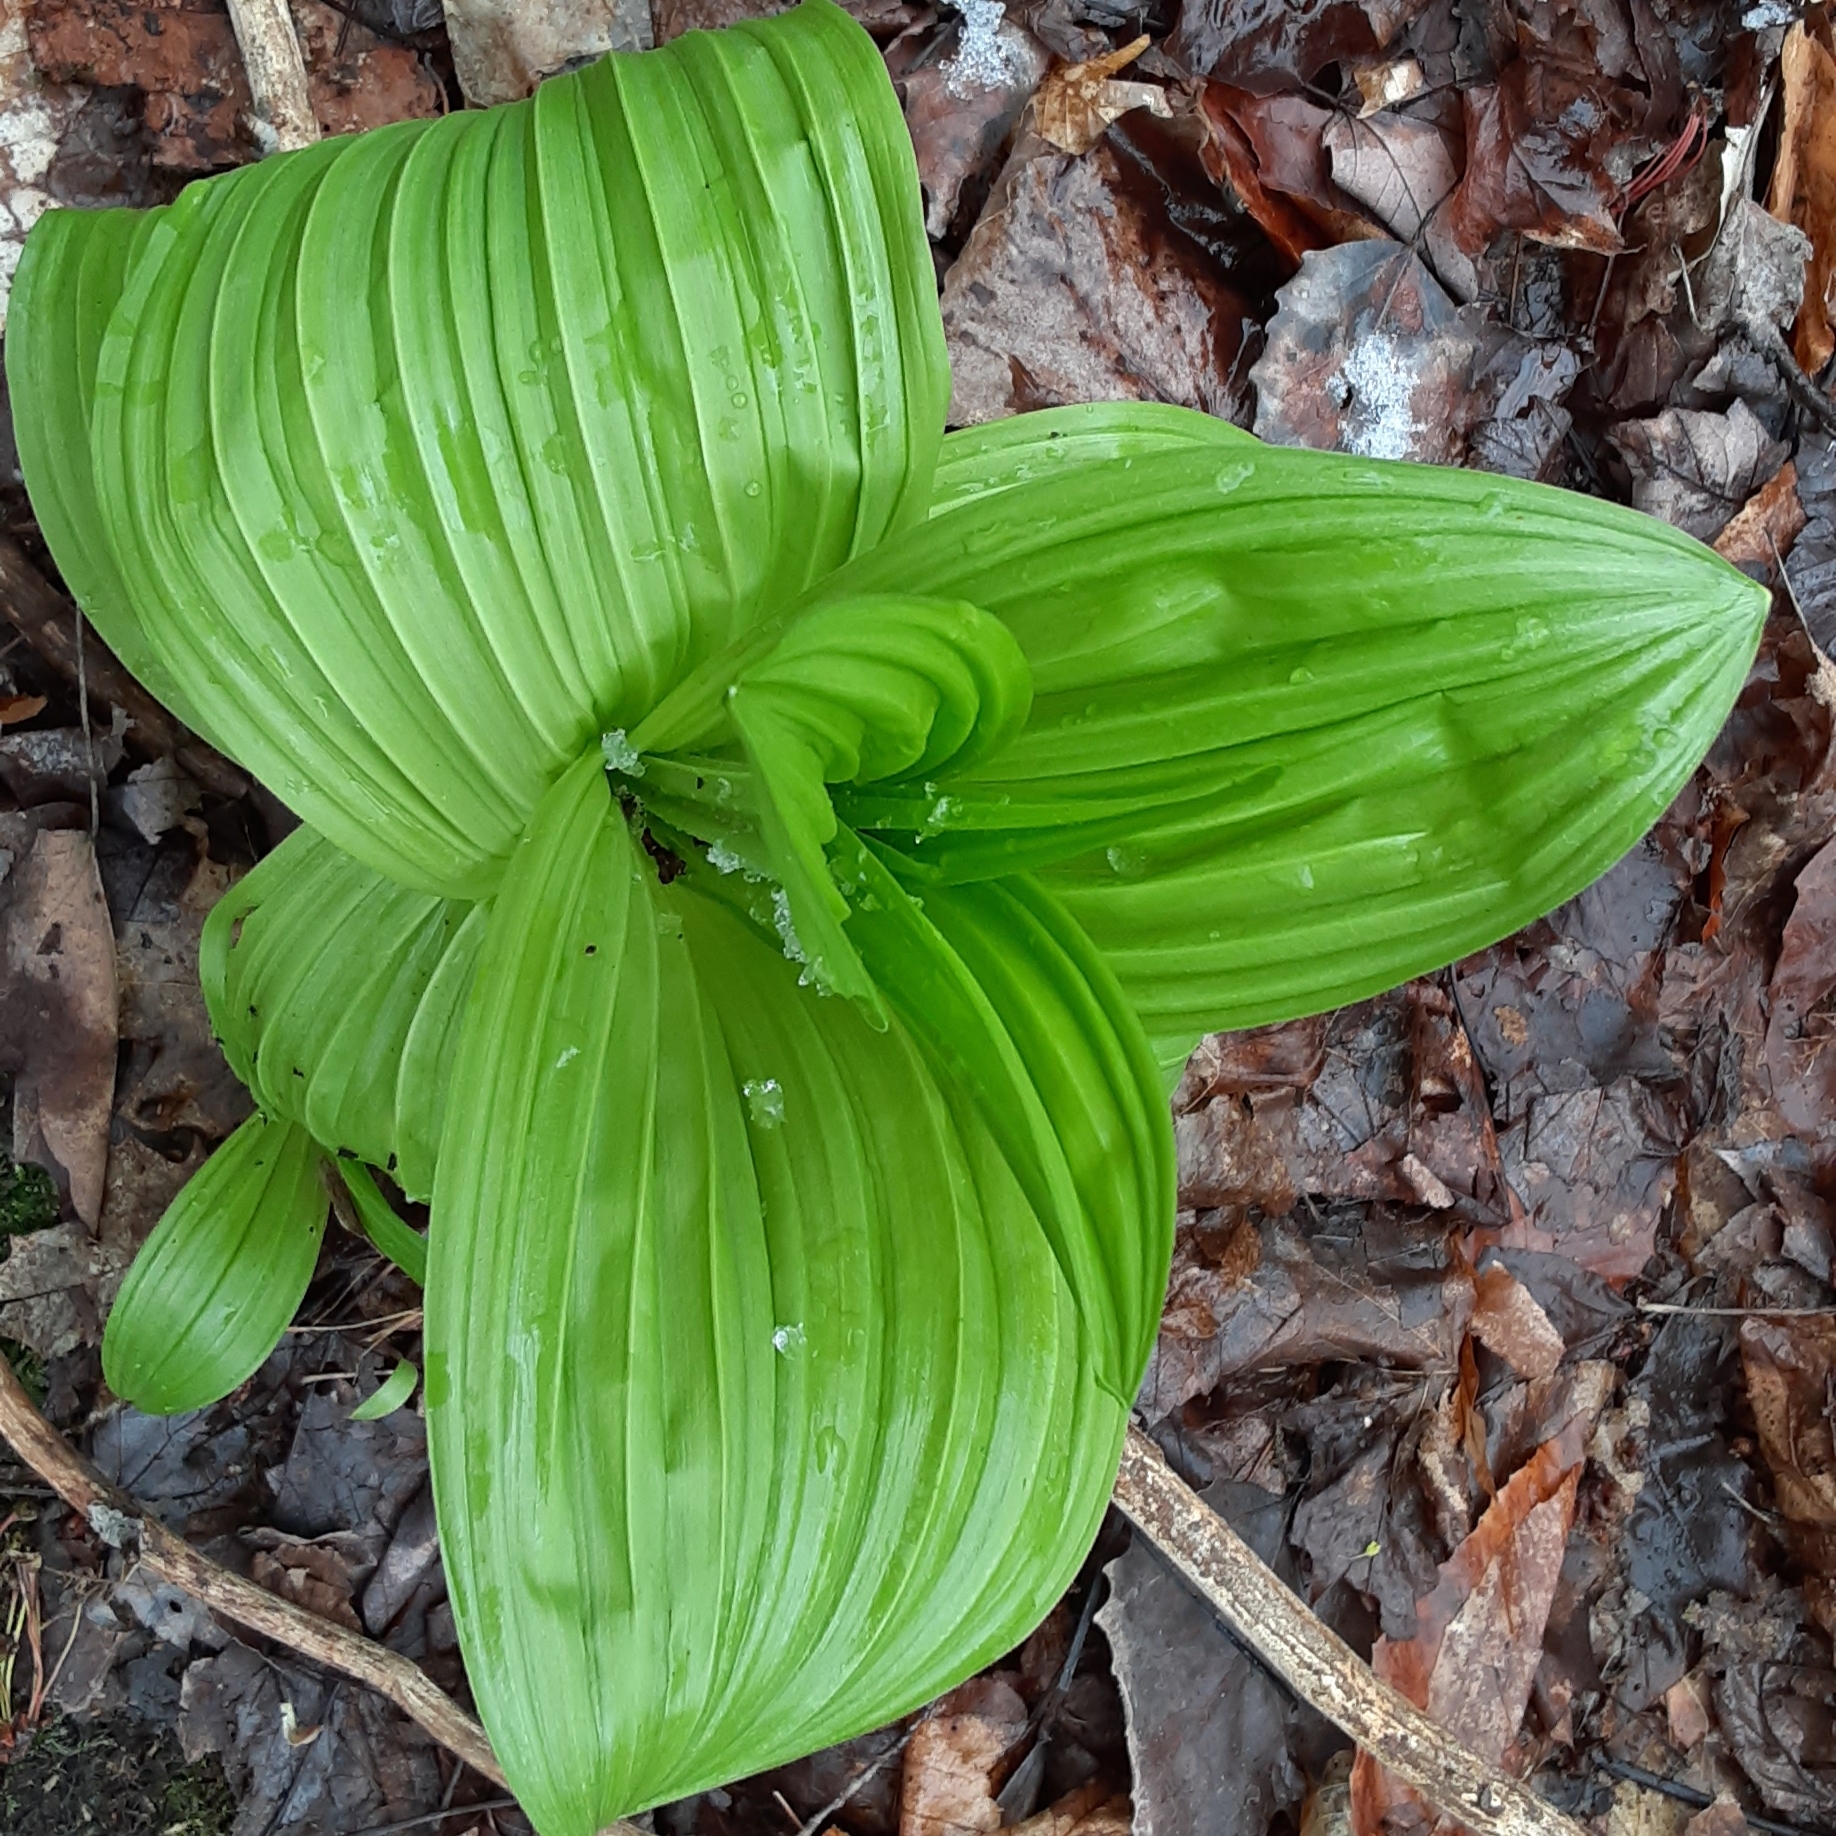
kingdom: Plantae
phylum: Tracheophyta
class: Liliopsida
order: Liliales
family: Melanthiaceae
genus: Veratrum
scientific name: Veratrum viride
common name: American false hellebore
